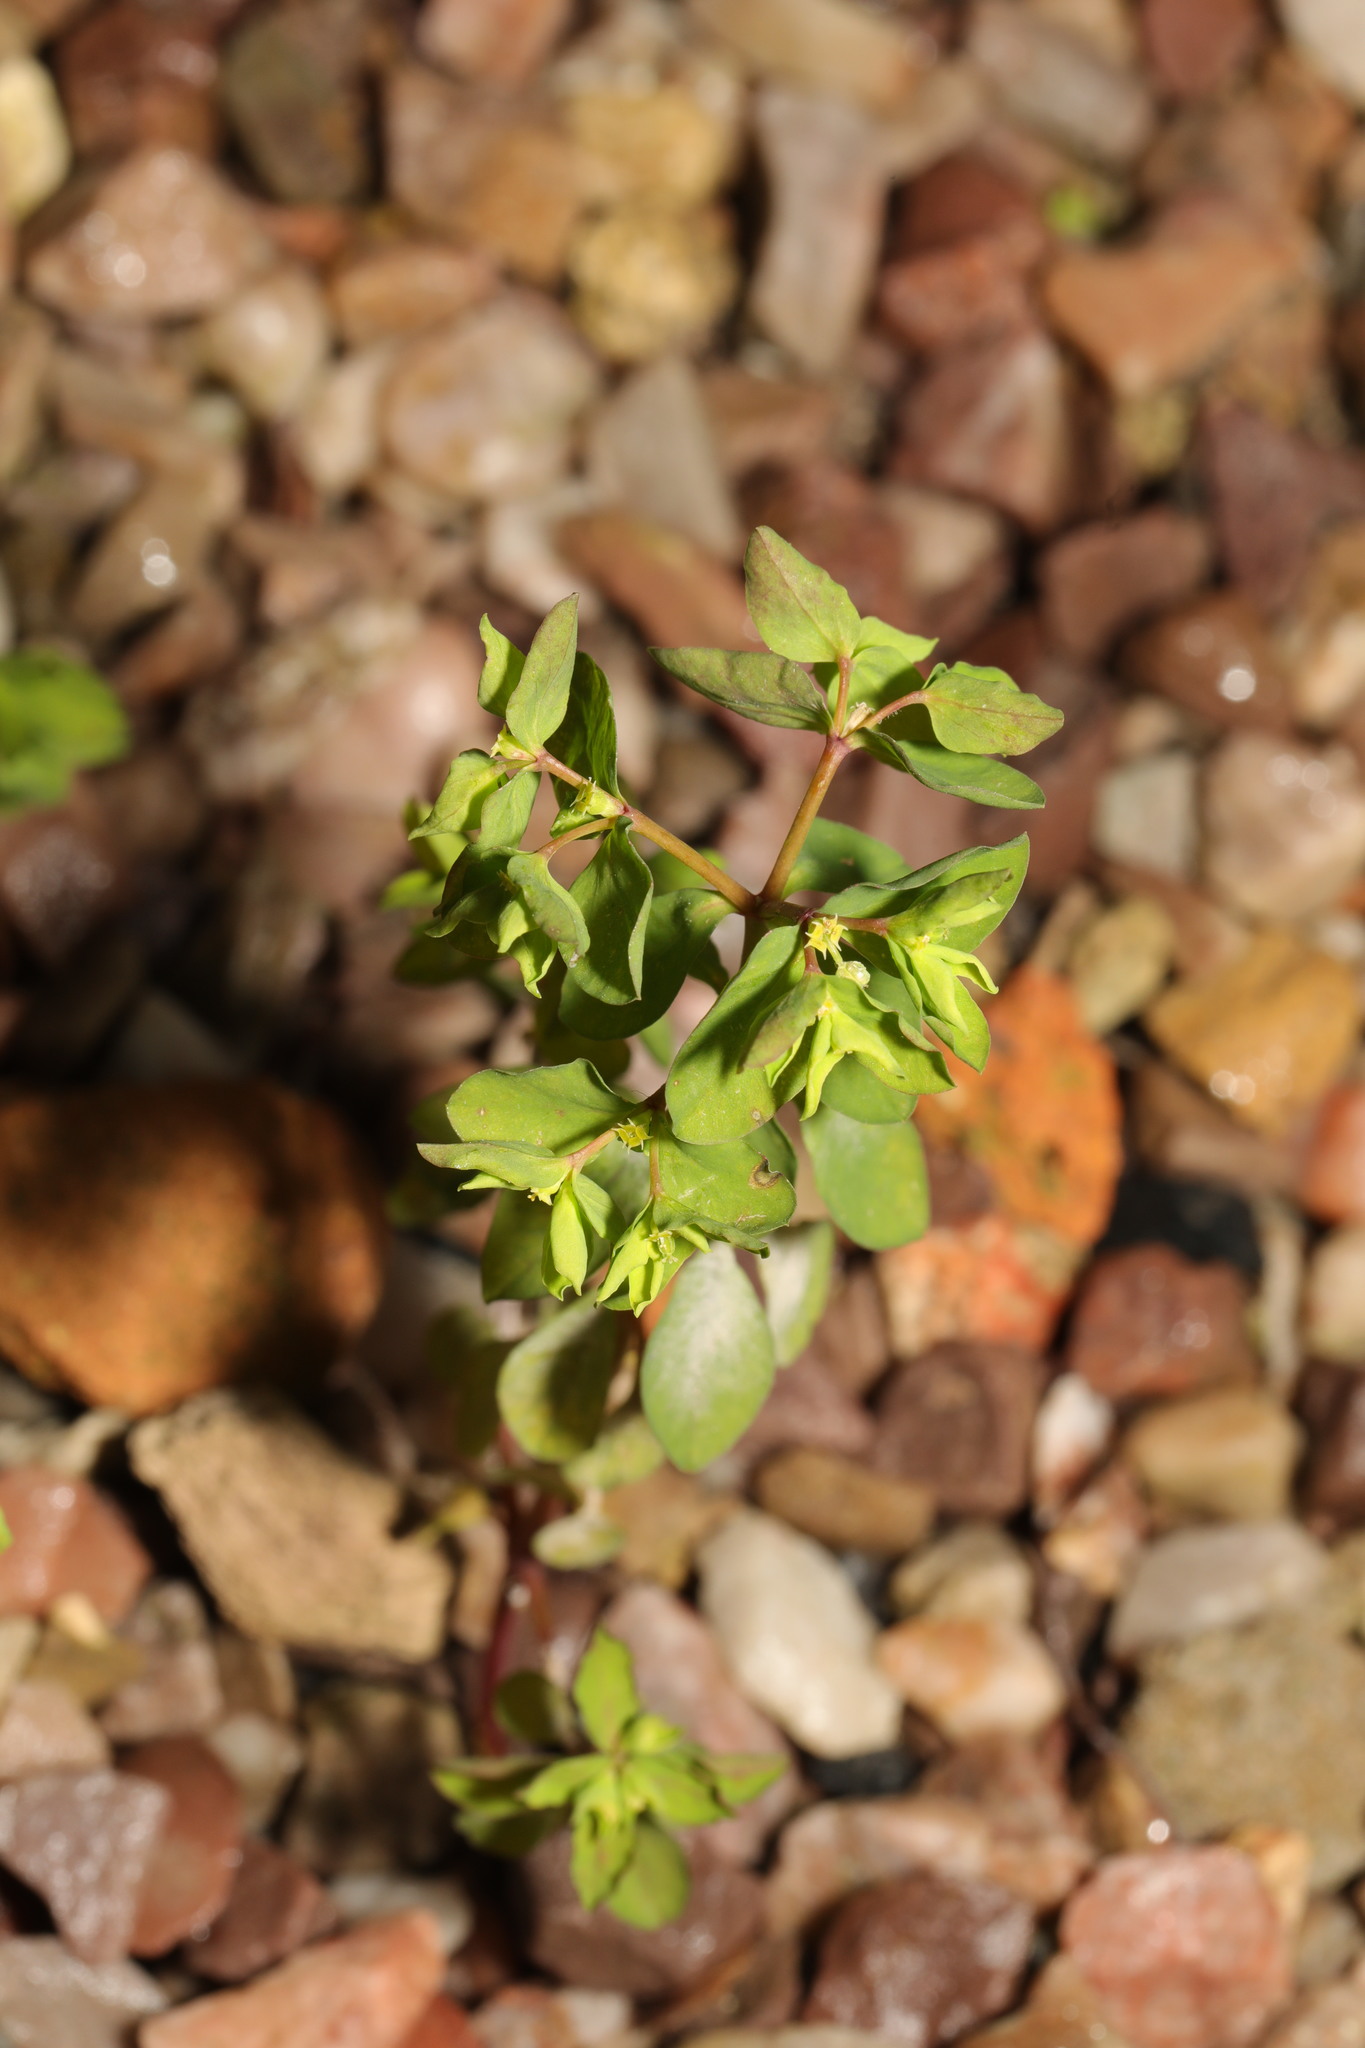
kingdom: Plantae
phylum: Tracheophyta
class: Magnoliopsida
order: Malpighiales
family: Euphorbiaceae
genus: Euphorbia
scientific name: Euphorbia peplus
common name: Petty spurge
